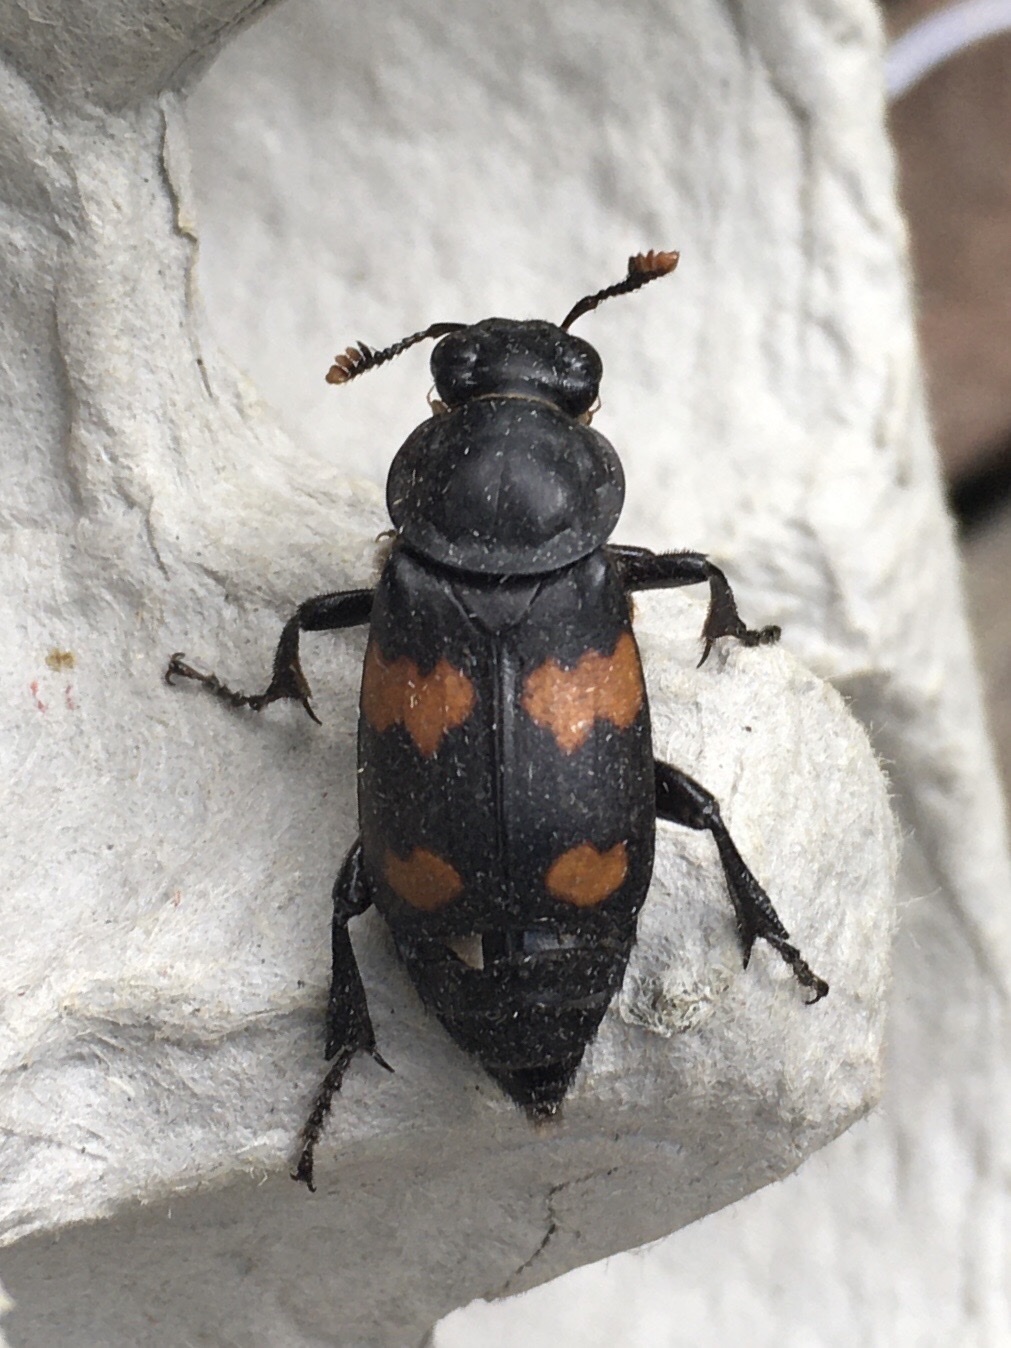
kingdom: Animalia
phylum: Arthropoda
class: Insecta
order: Coleoptera
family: Staphylinidae
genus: Nicrophorus
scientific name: Nicrophorus orbicollis
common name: Roundneck sexton beetle
